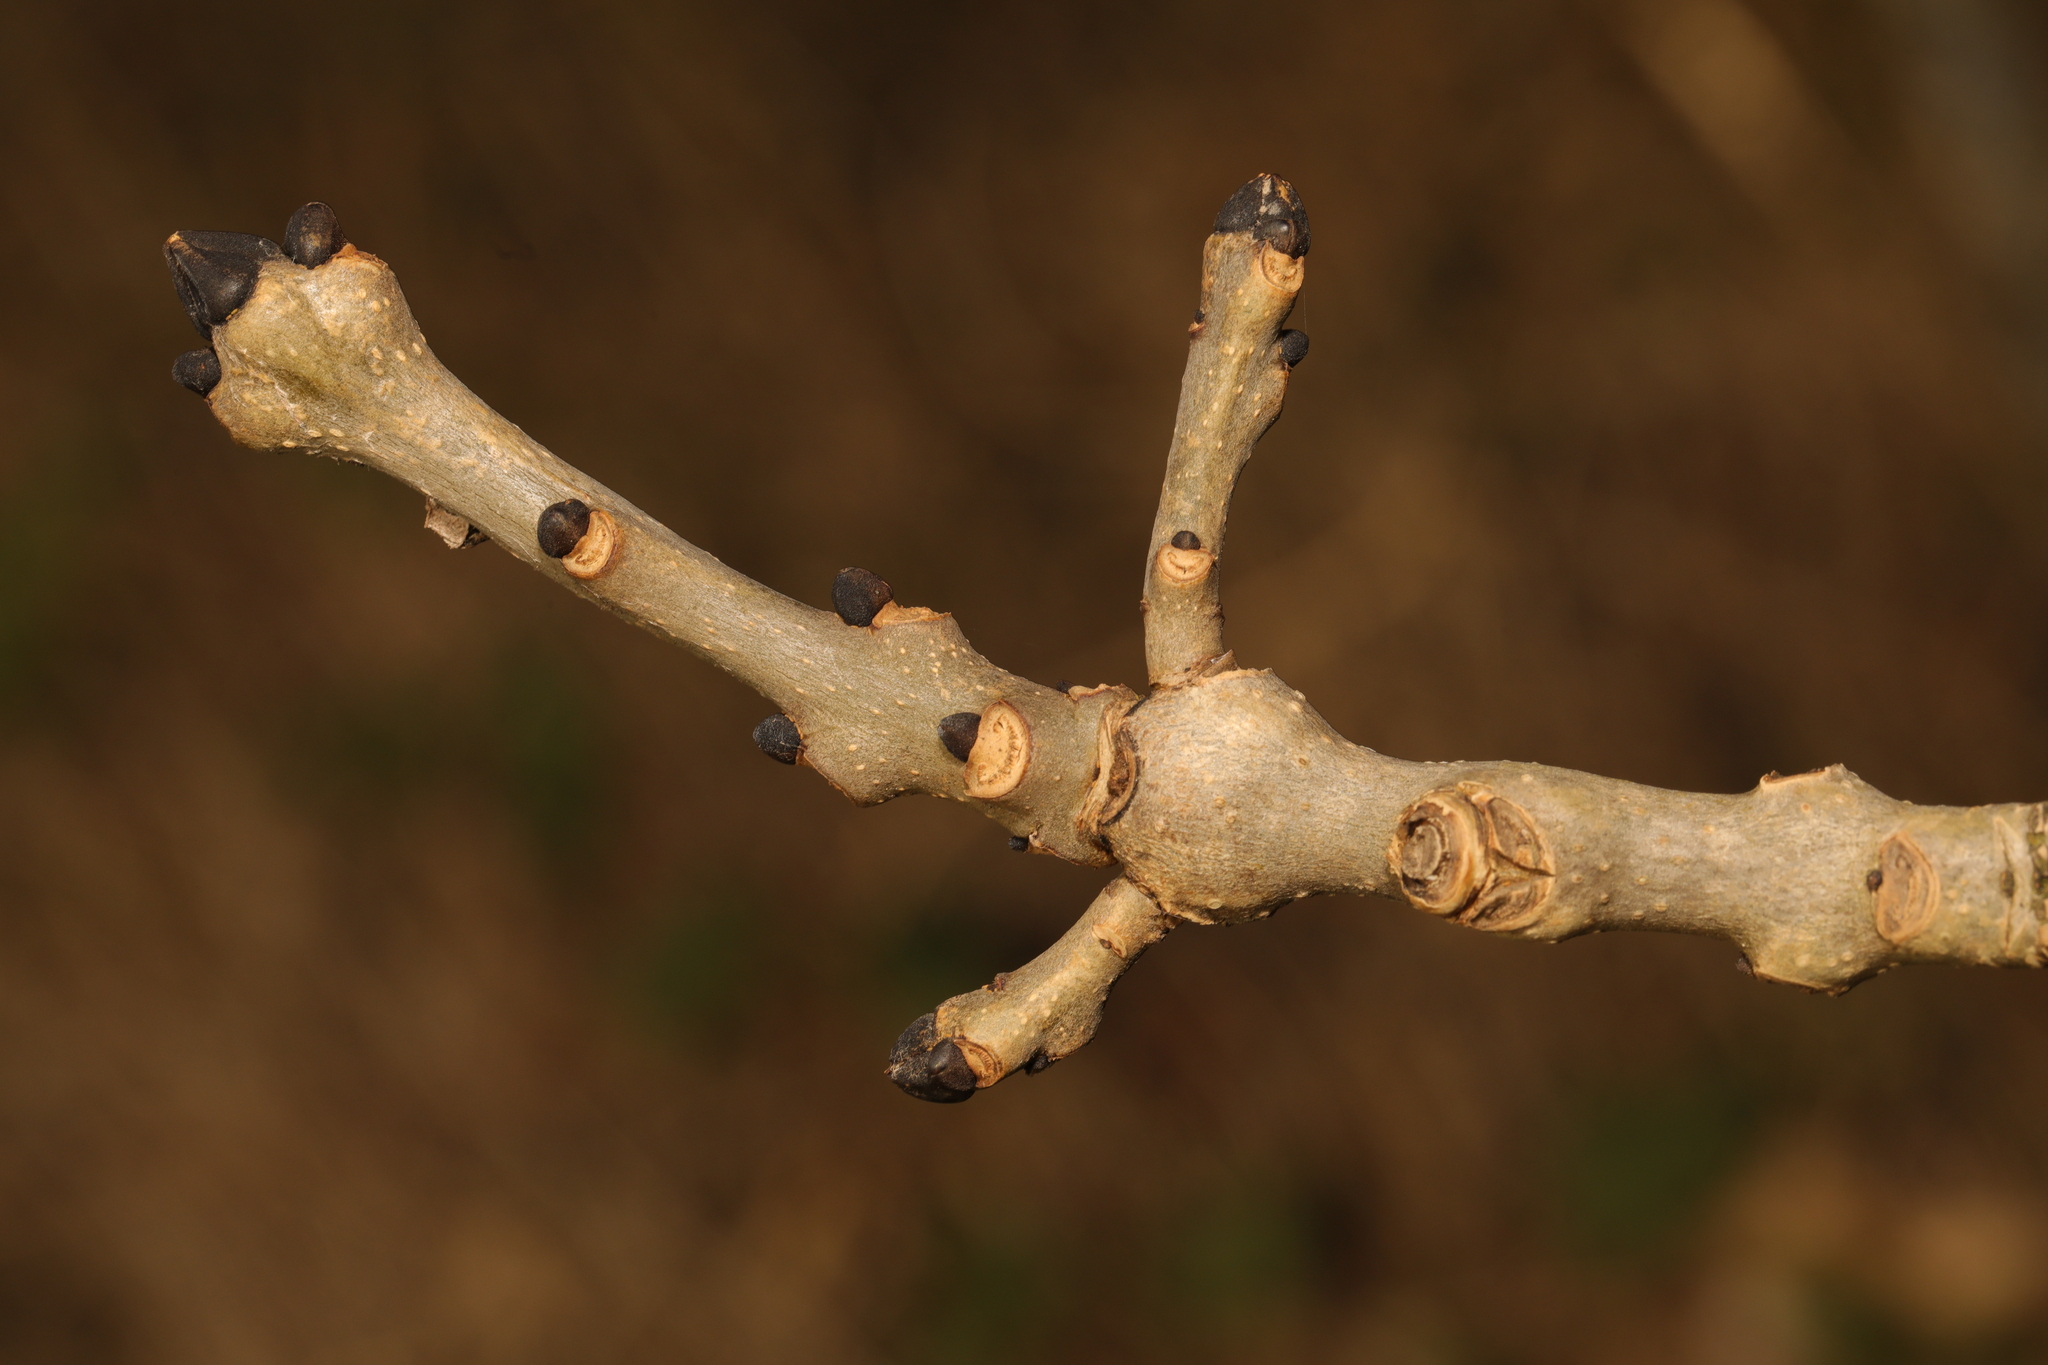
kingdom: Plantae
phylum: Tracheophyta
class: Magnoliopsida
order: Lamiales
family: Oleaceae
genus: Fraxinus
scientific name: Fraxinus excelsior
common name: European ash
